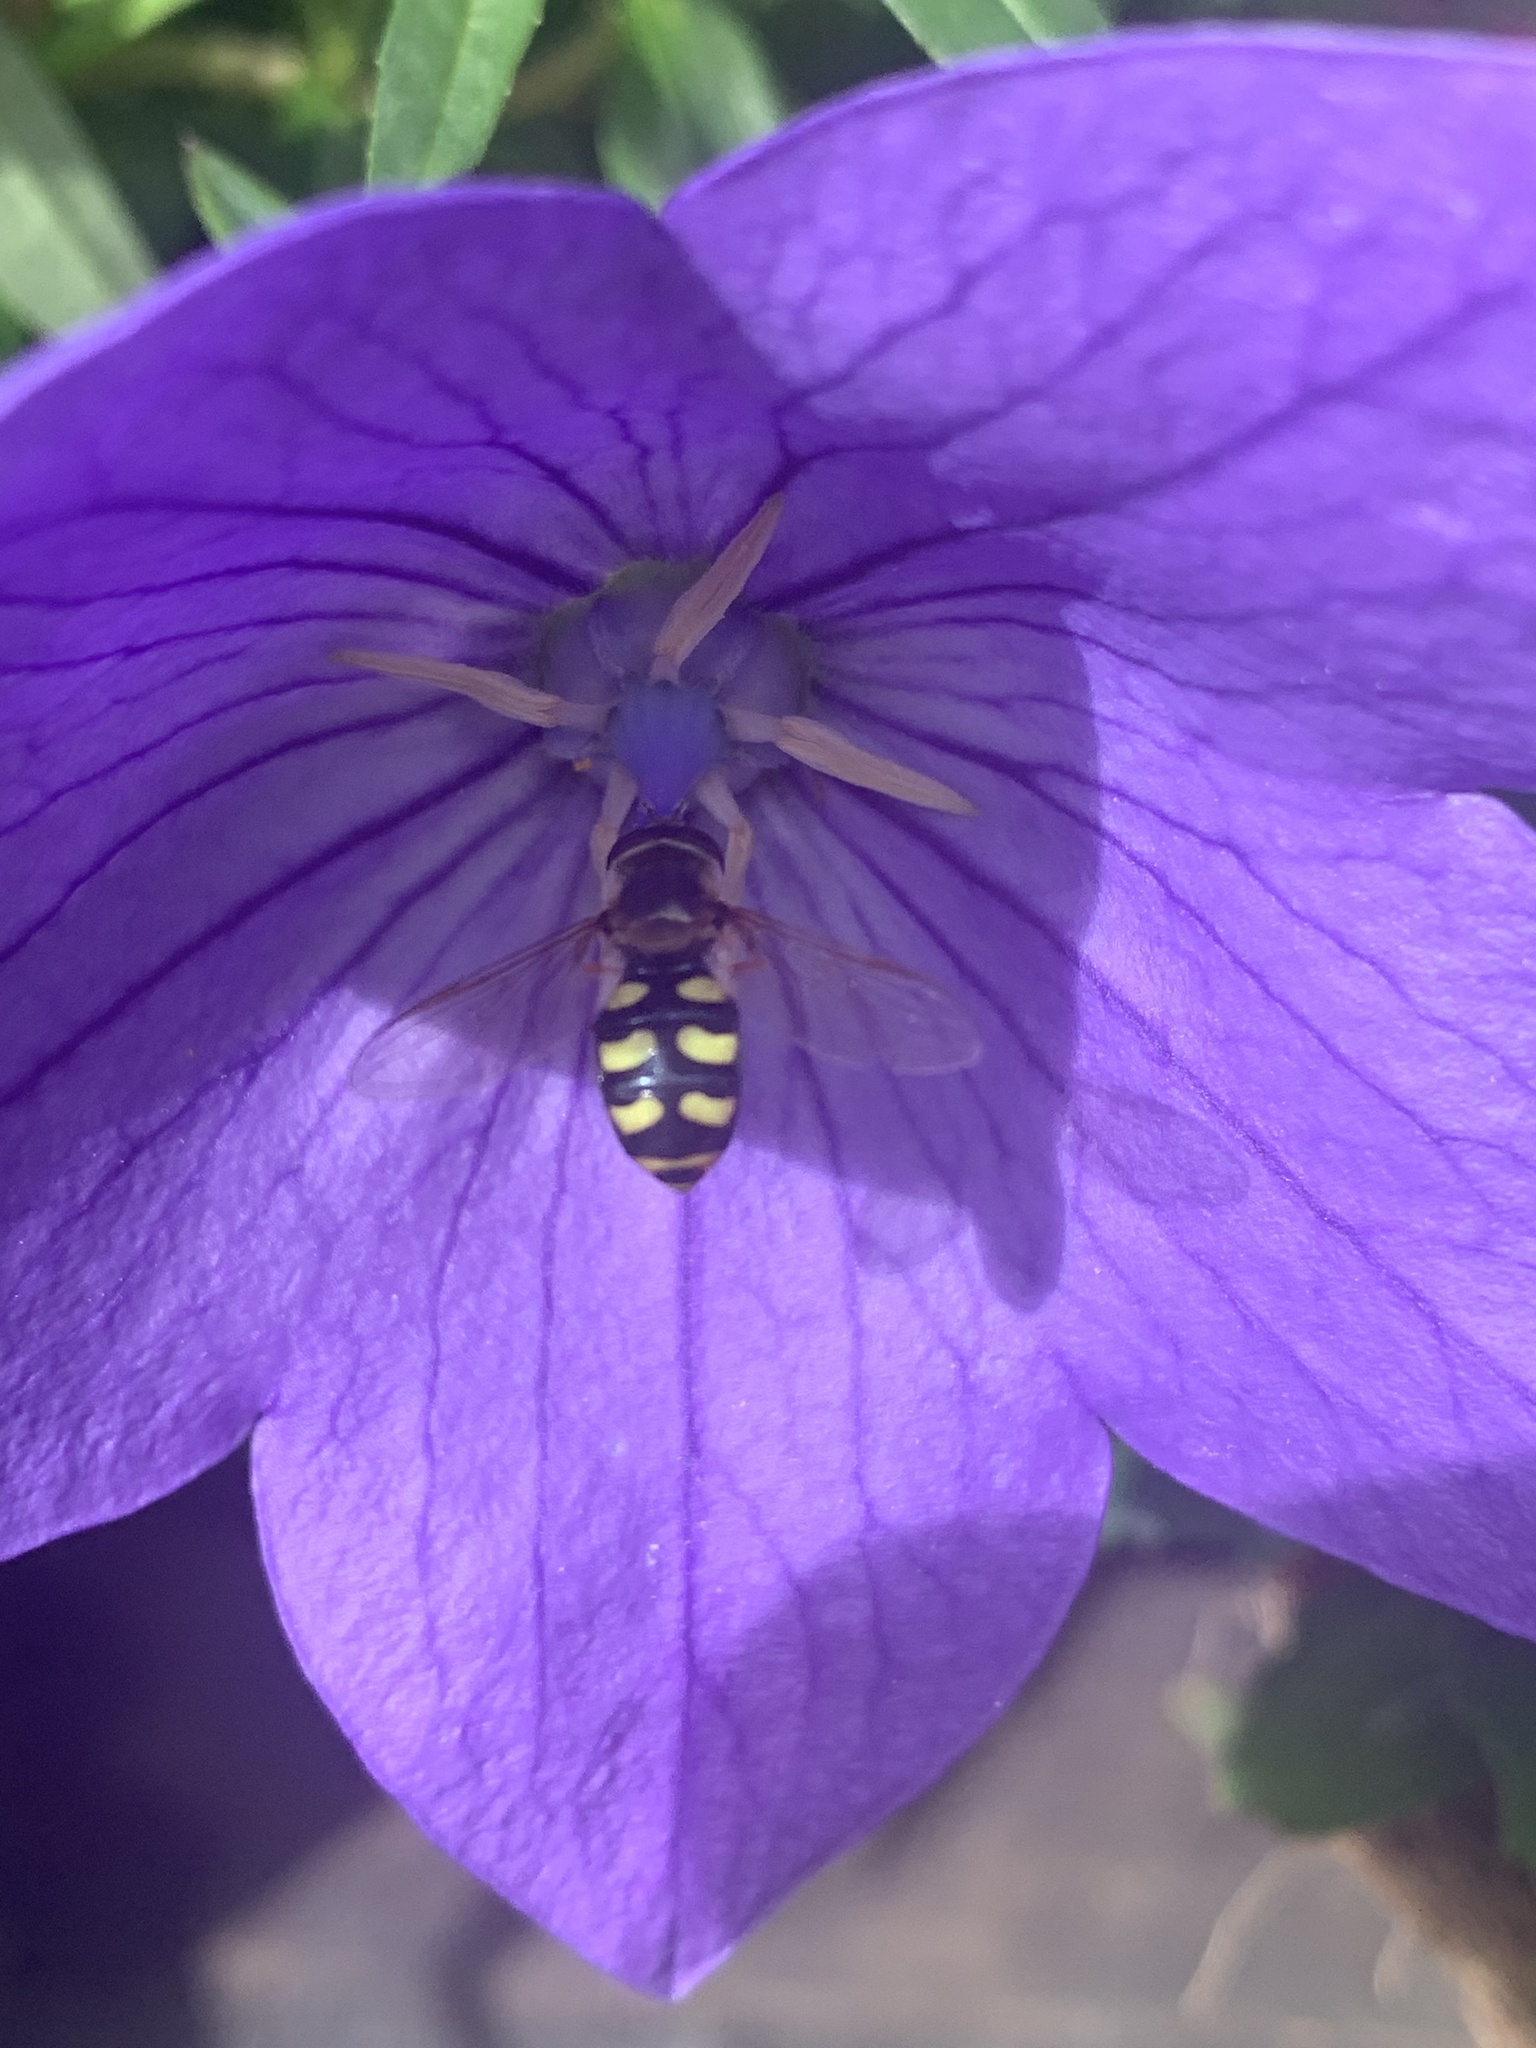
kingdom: Animalia
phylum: Arthropoda
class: Insecta
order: Diptera
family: Syrphidae
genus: Eupeodes
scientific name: Eupeodes
